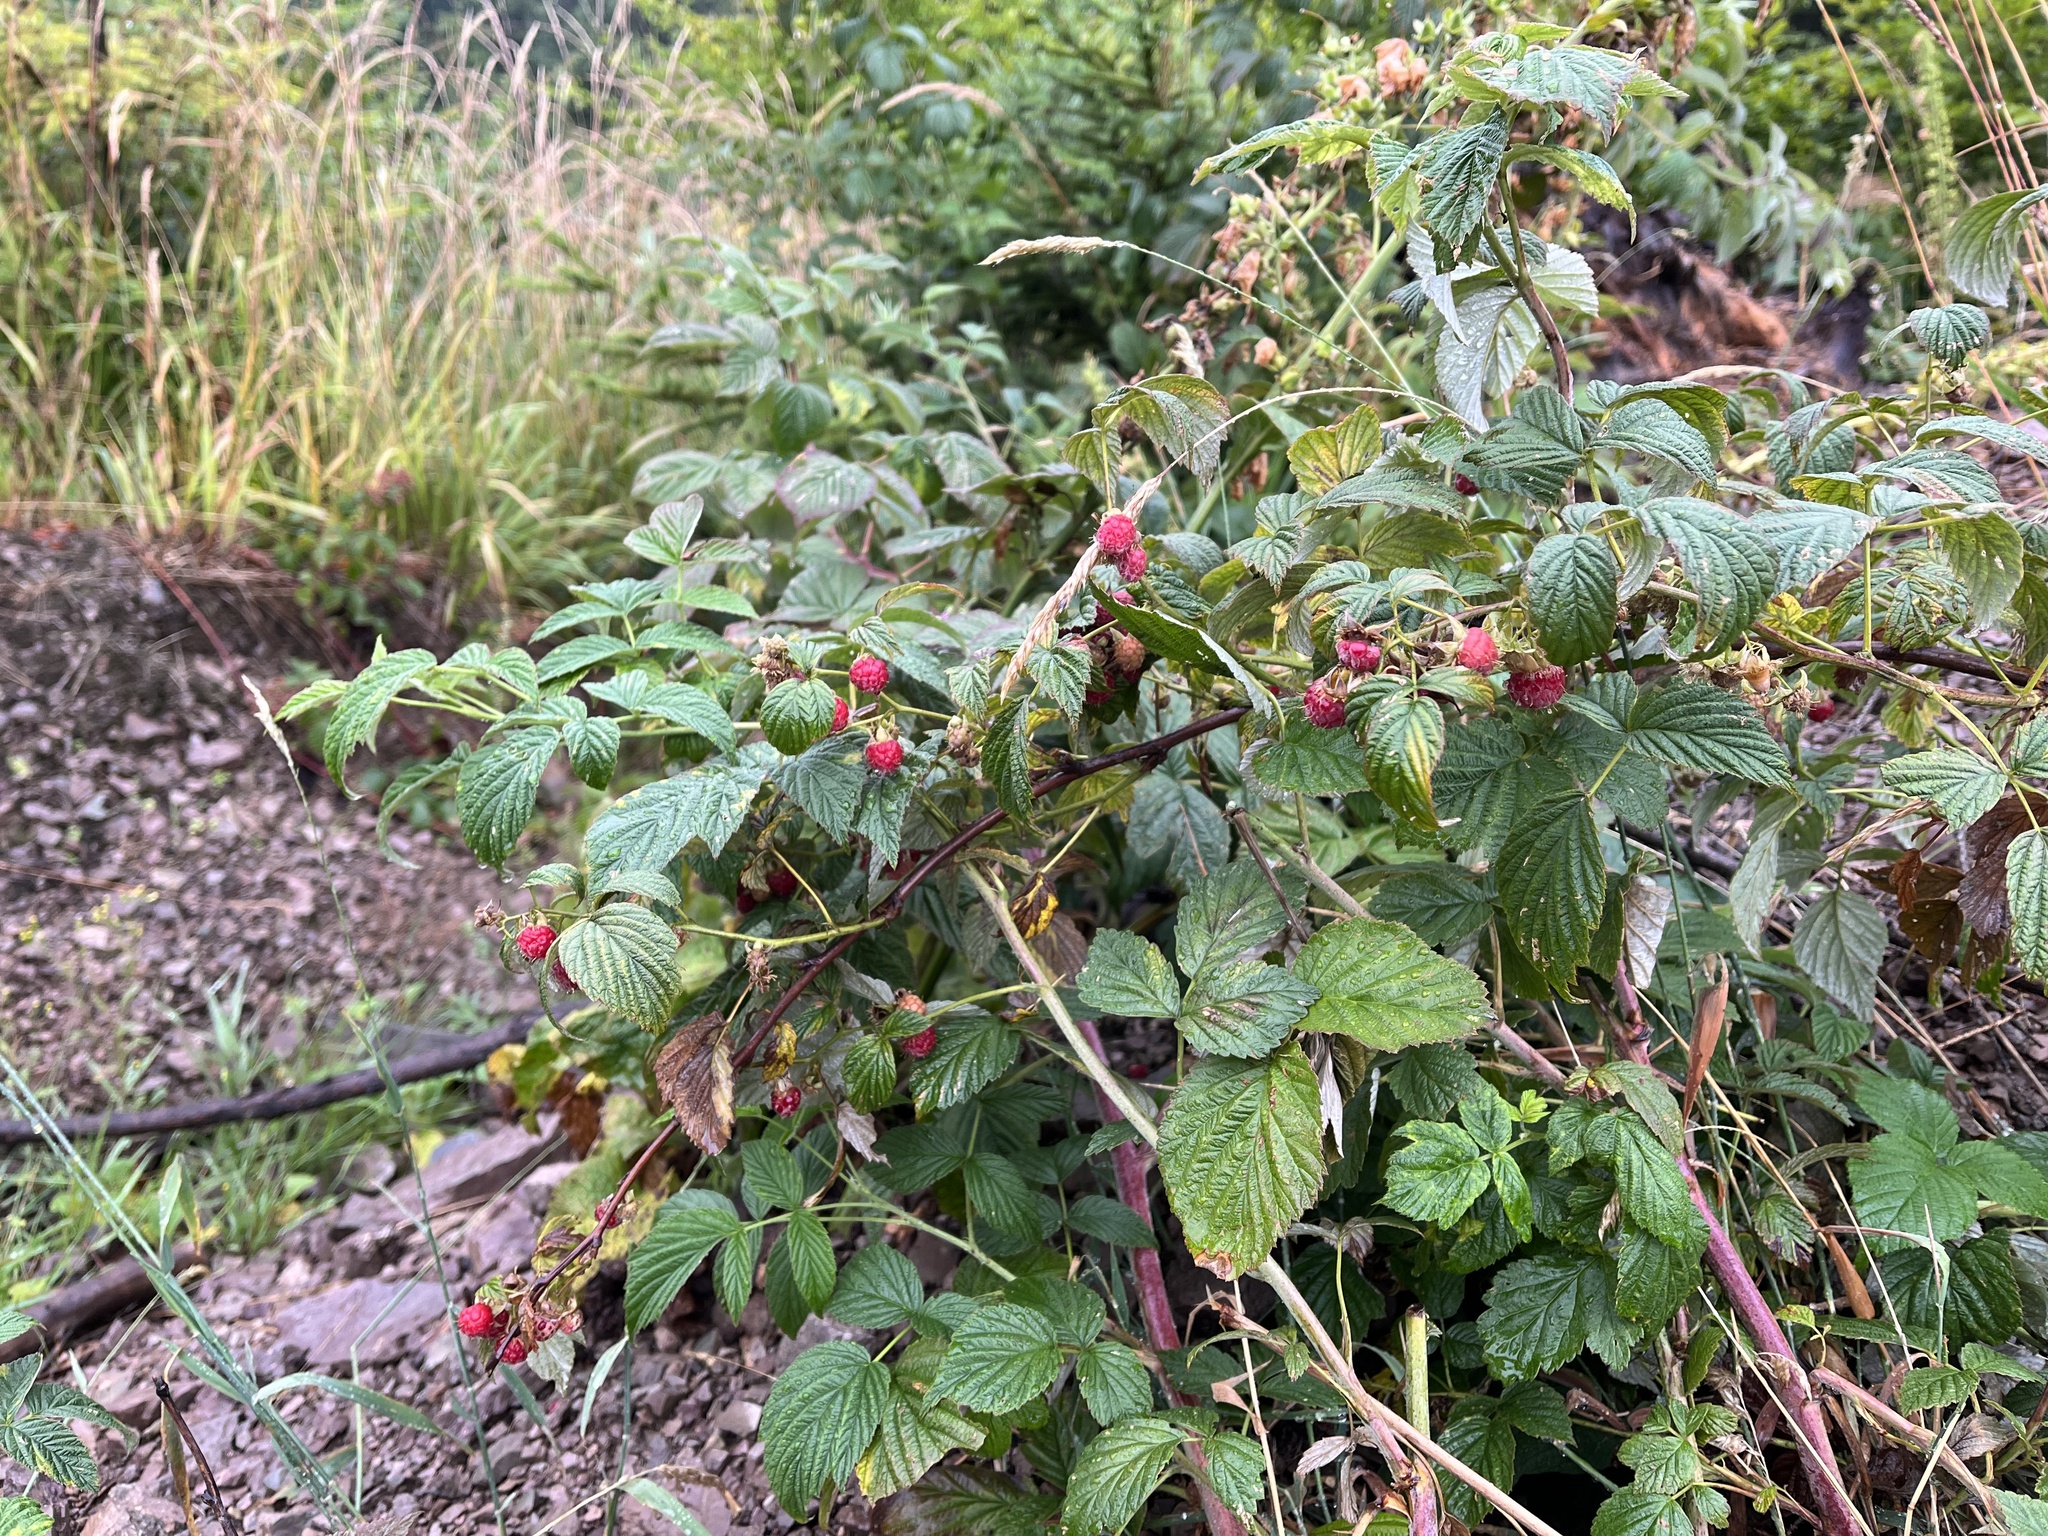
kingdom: Plantae
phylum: Tracheophyta
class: Magnoliopsida
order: Rosales
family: Rosaceae
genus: Rubus
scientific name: Rubus idaeus
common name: Raspberry
